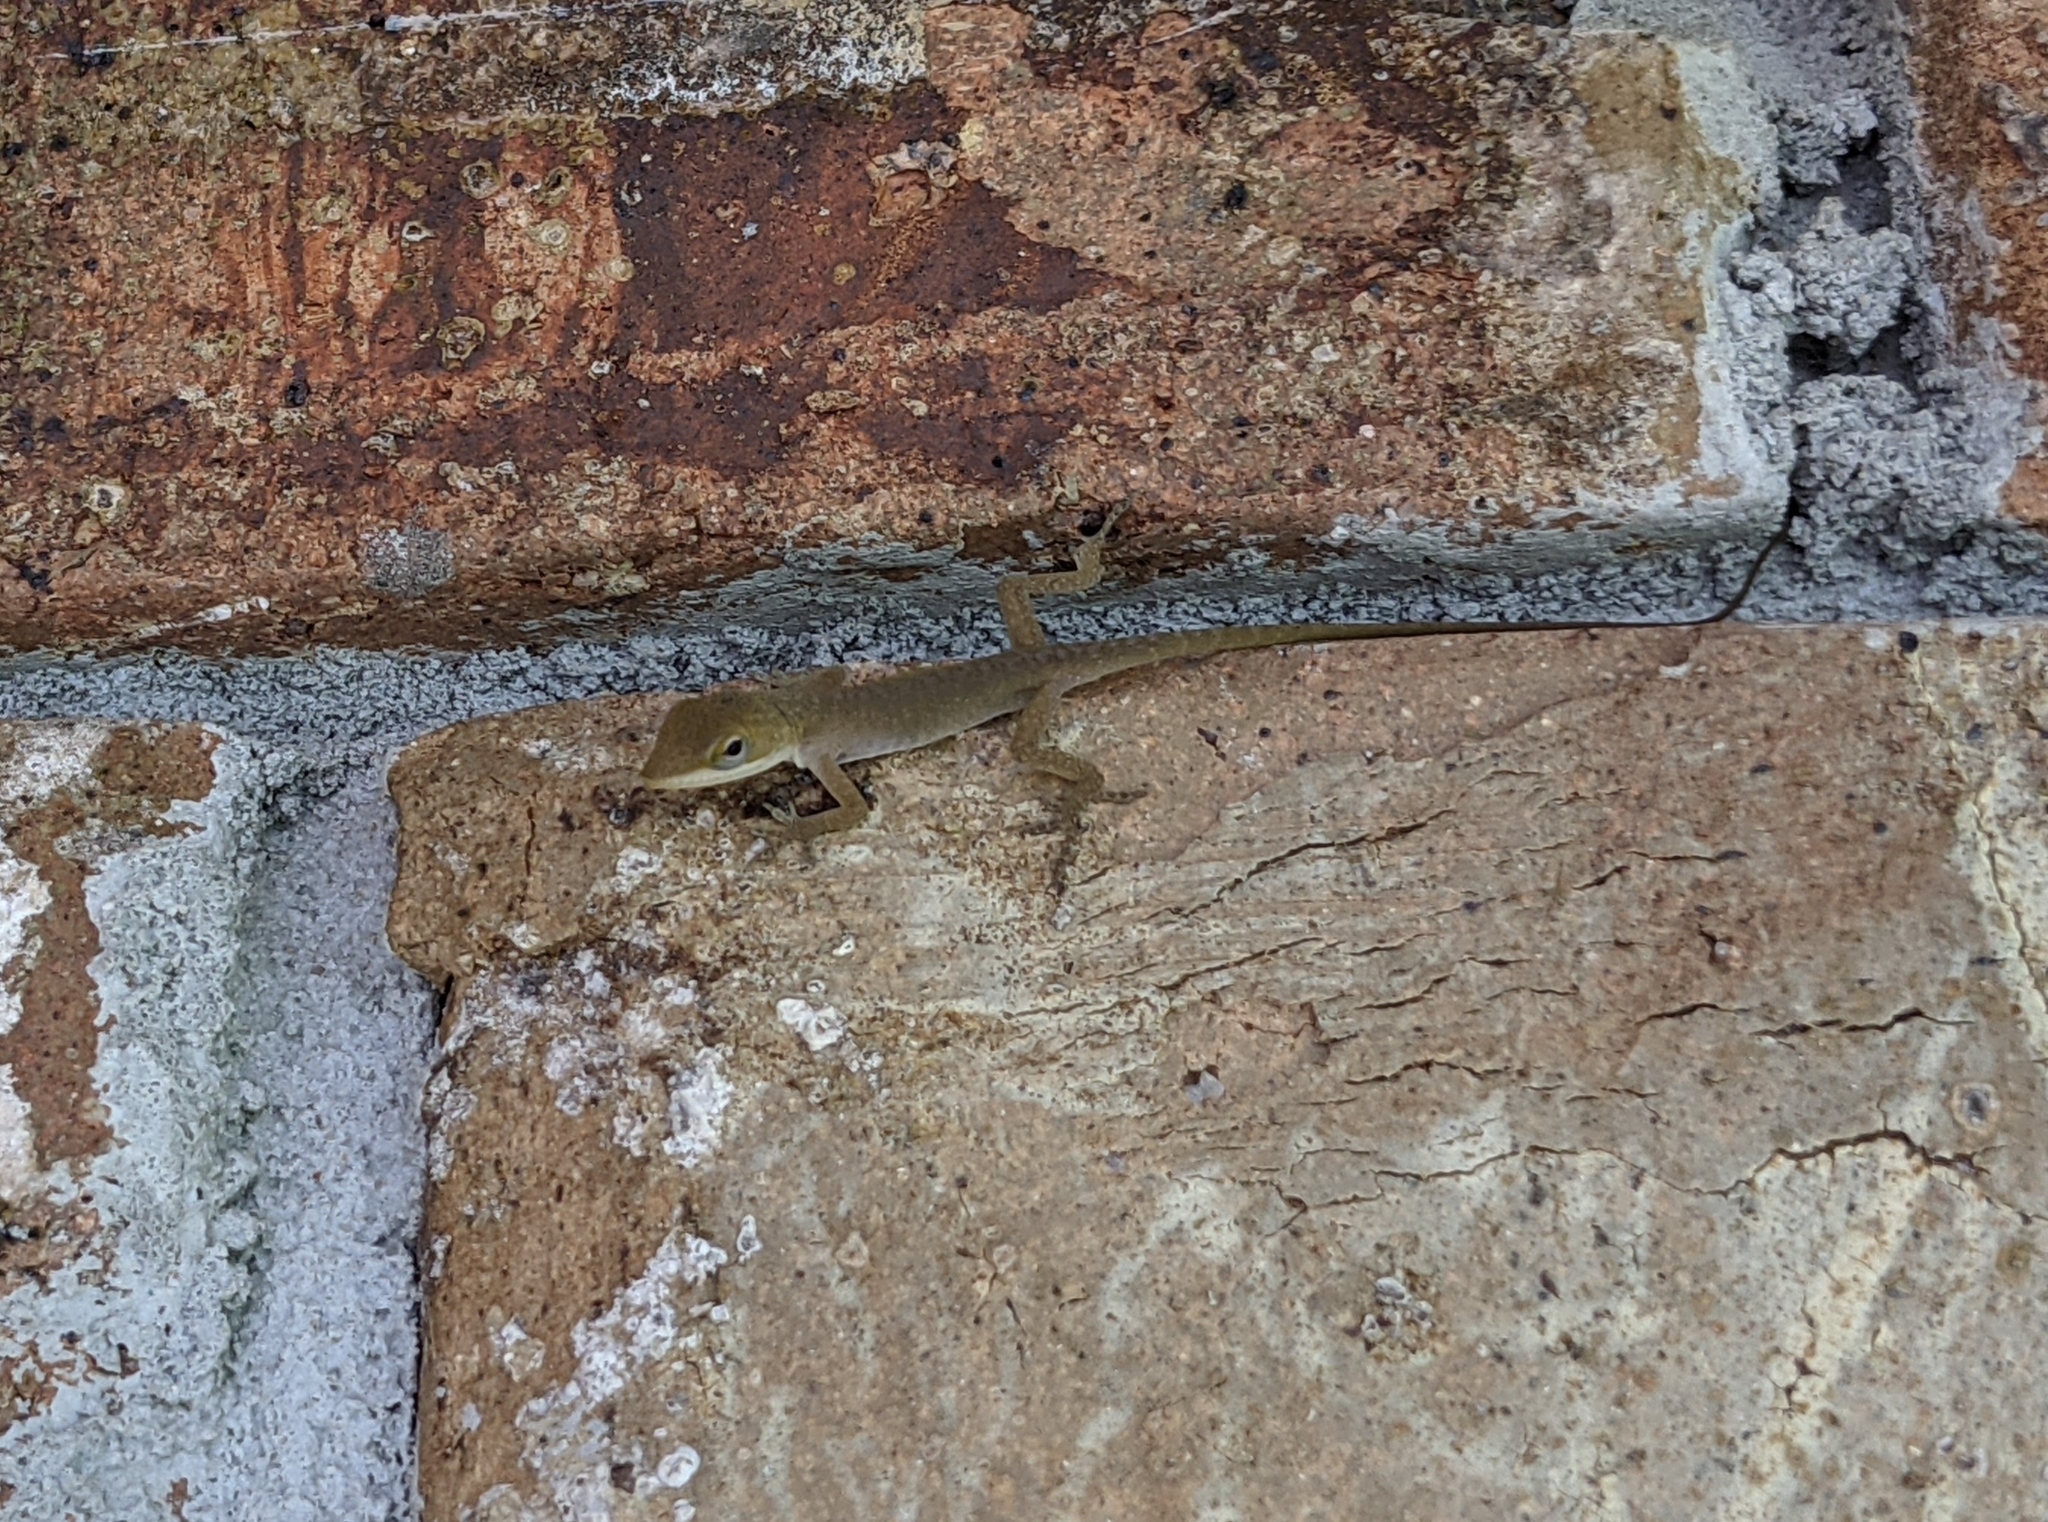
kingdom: Animalia
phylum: Chordata
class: Squamata
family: Dactyloidae
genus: Anolis
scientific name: Anolis carolinensis
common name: Green anole
